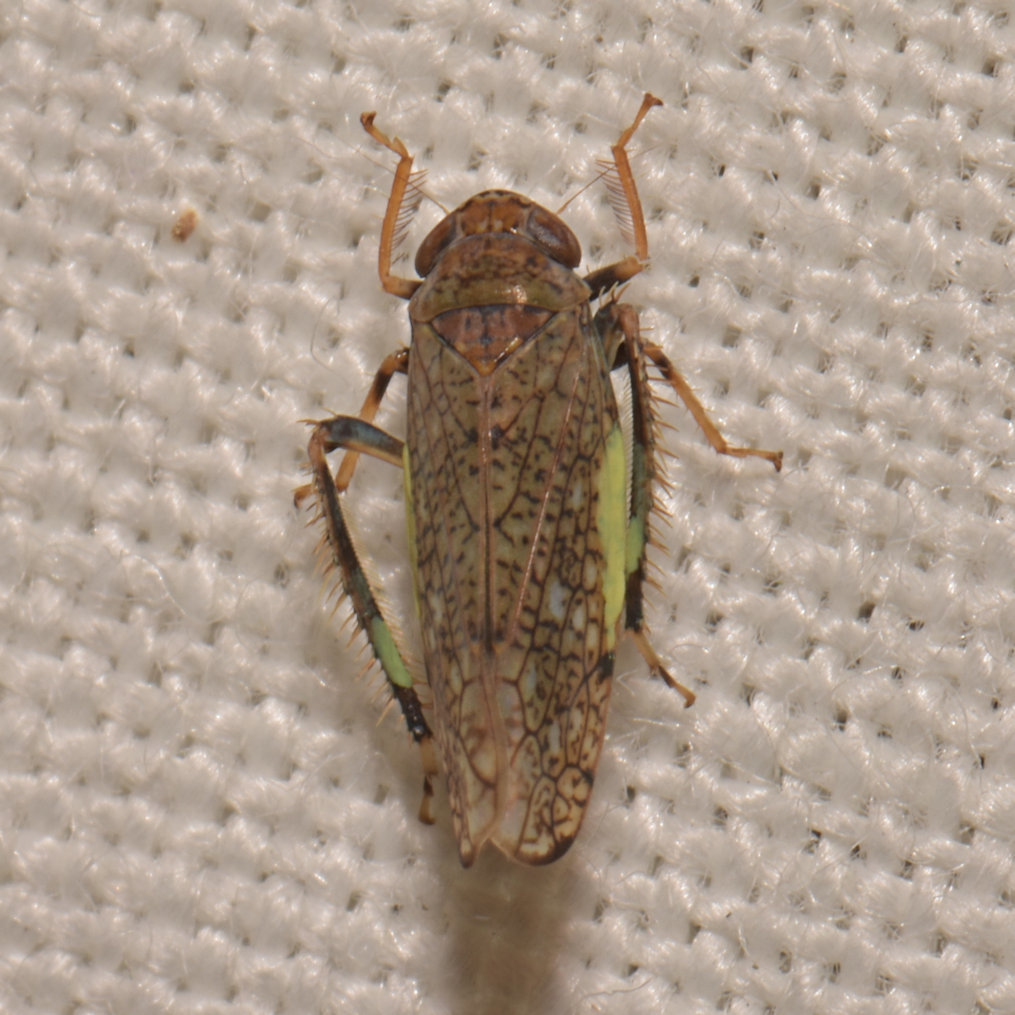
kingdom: Animalia
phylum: Arthropoda
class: Insecta
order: Hemiptera
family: Cicadellidae
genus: Orientus
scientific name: Orientus ishidae
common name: Japanese leafhopper
